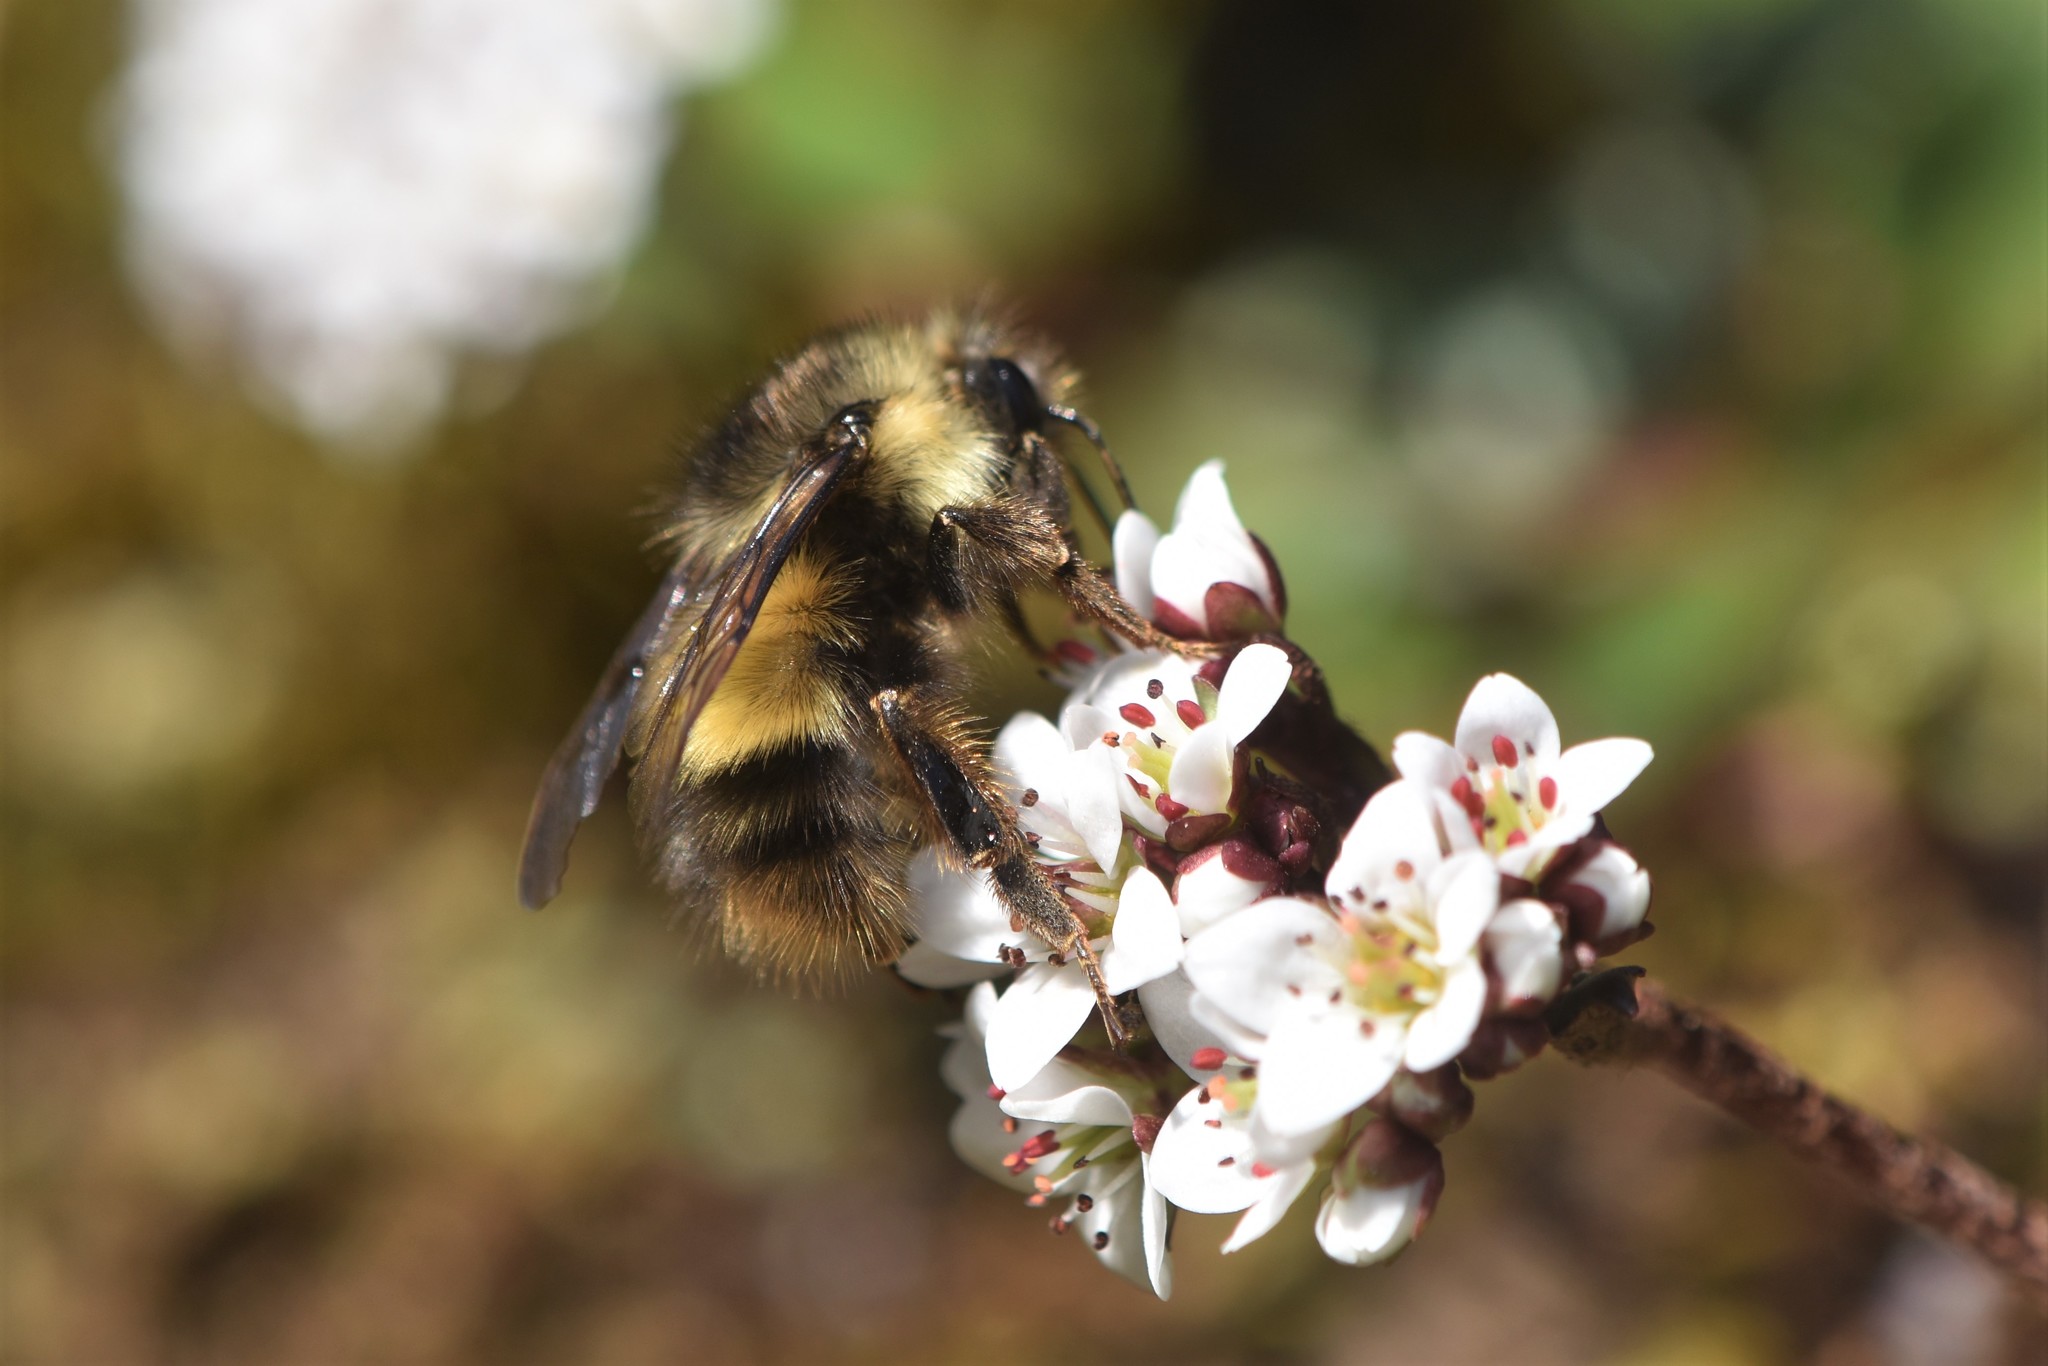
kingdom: Animalia
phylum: Arthropoda
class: Insecta
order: Hymenoptera
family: Apidae
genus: Bombus
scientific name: Bombus sitkensis
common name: Sitka bumble bee
